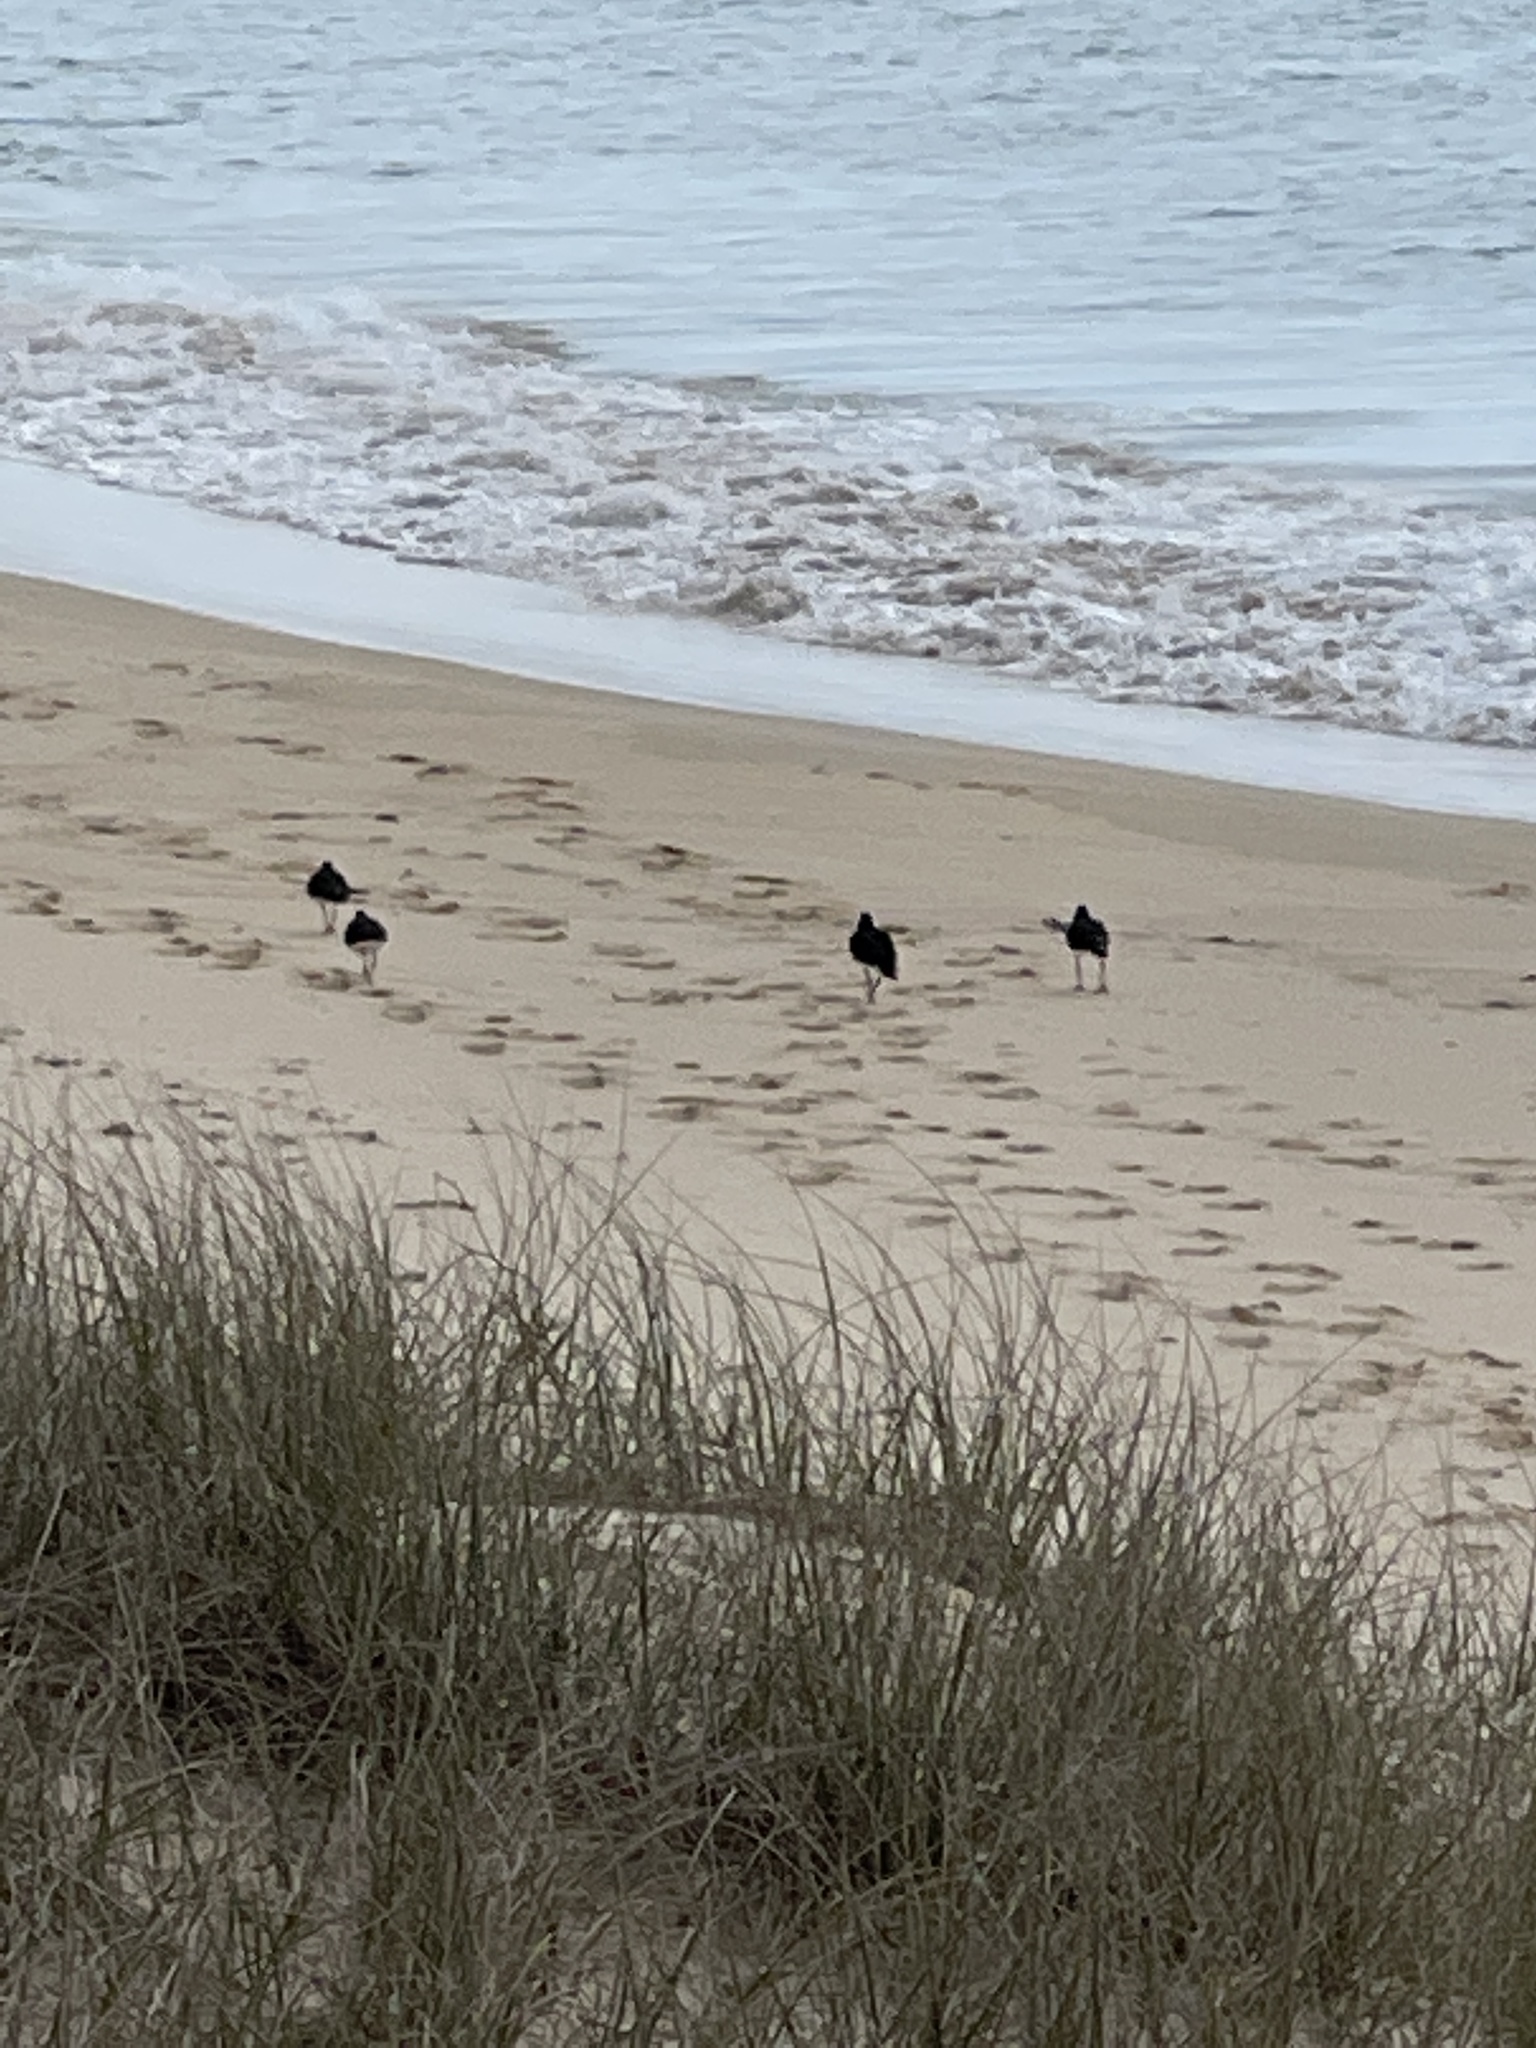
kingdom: Animalia
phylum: Chordata
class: Aves
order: Charadriiformes
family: Haematopodidae
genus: Haematopus
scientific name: Haematopus longirostris
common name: Pied oystercatcher
